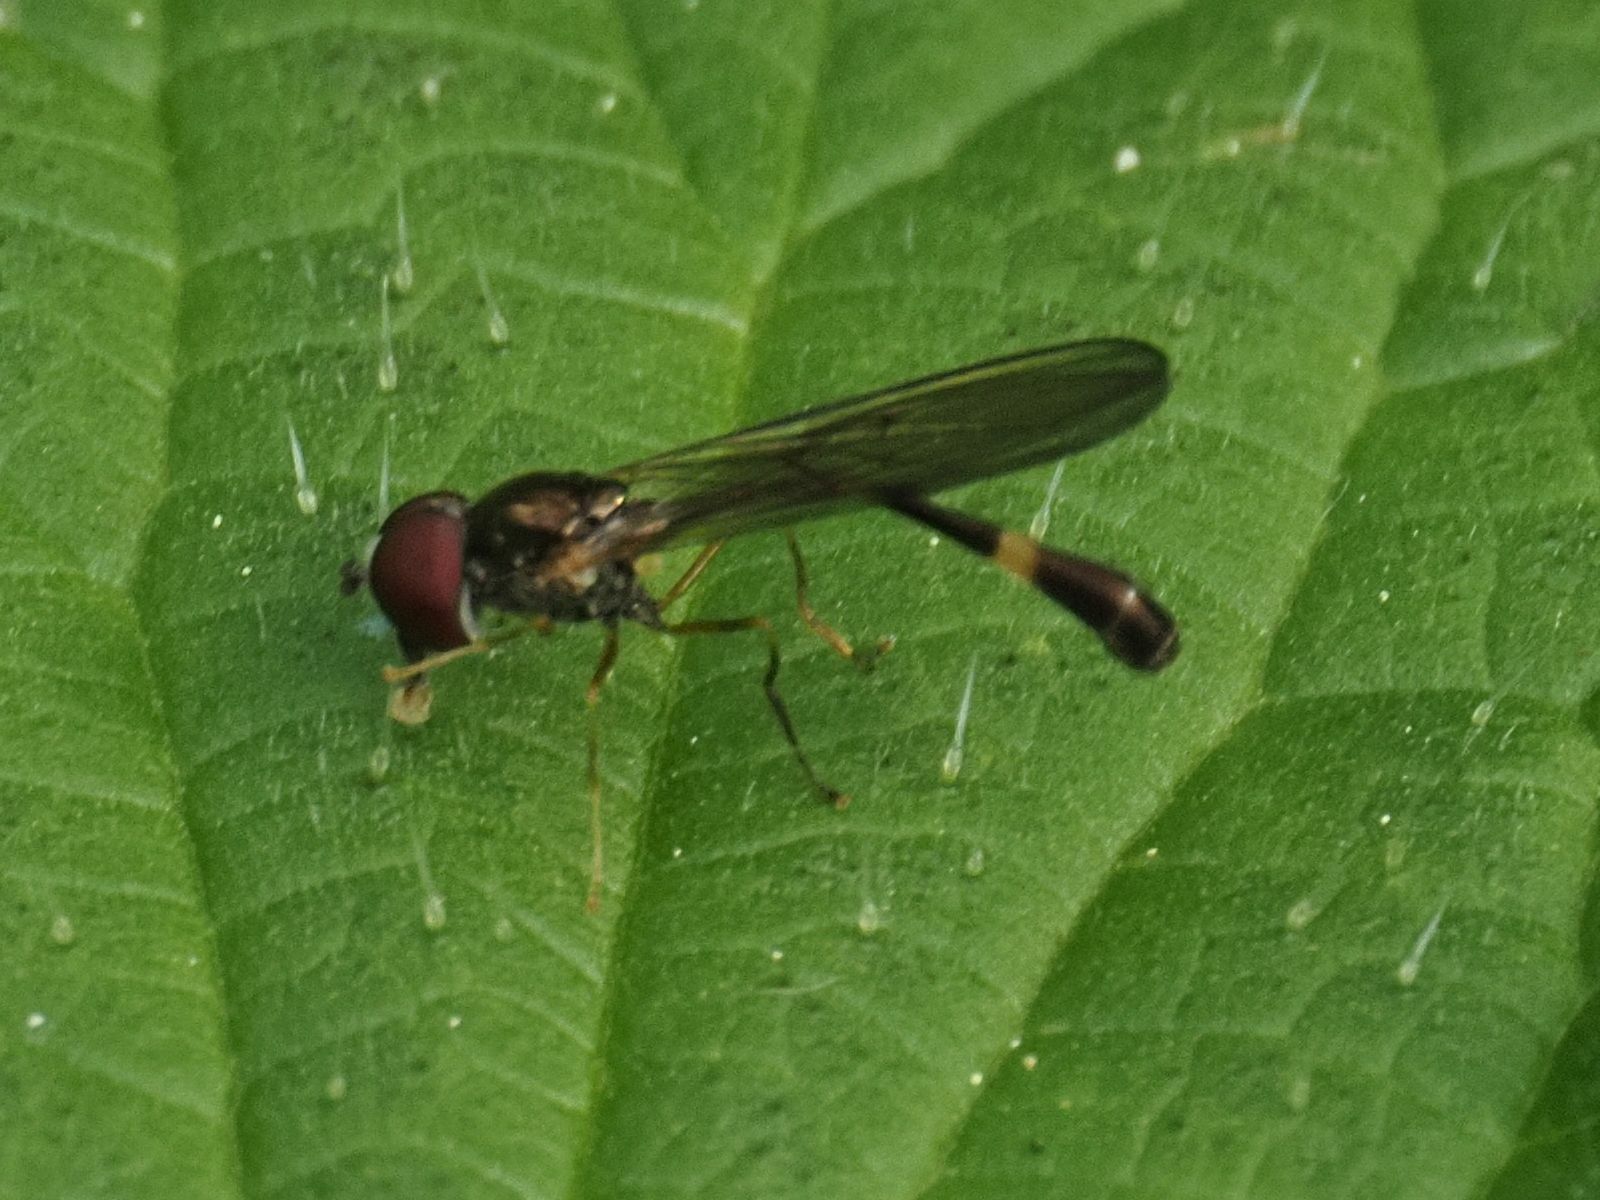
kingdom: Animalia
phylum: Arthropoda
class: Insecta
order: Diptera
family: Syrphidae
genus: Baccha
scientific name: Baccha elongata
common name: Common dainty
